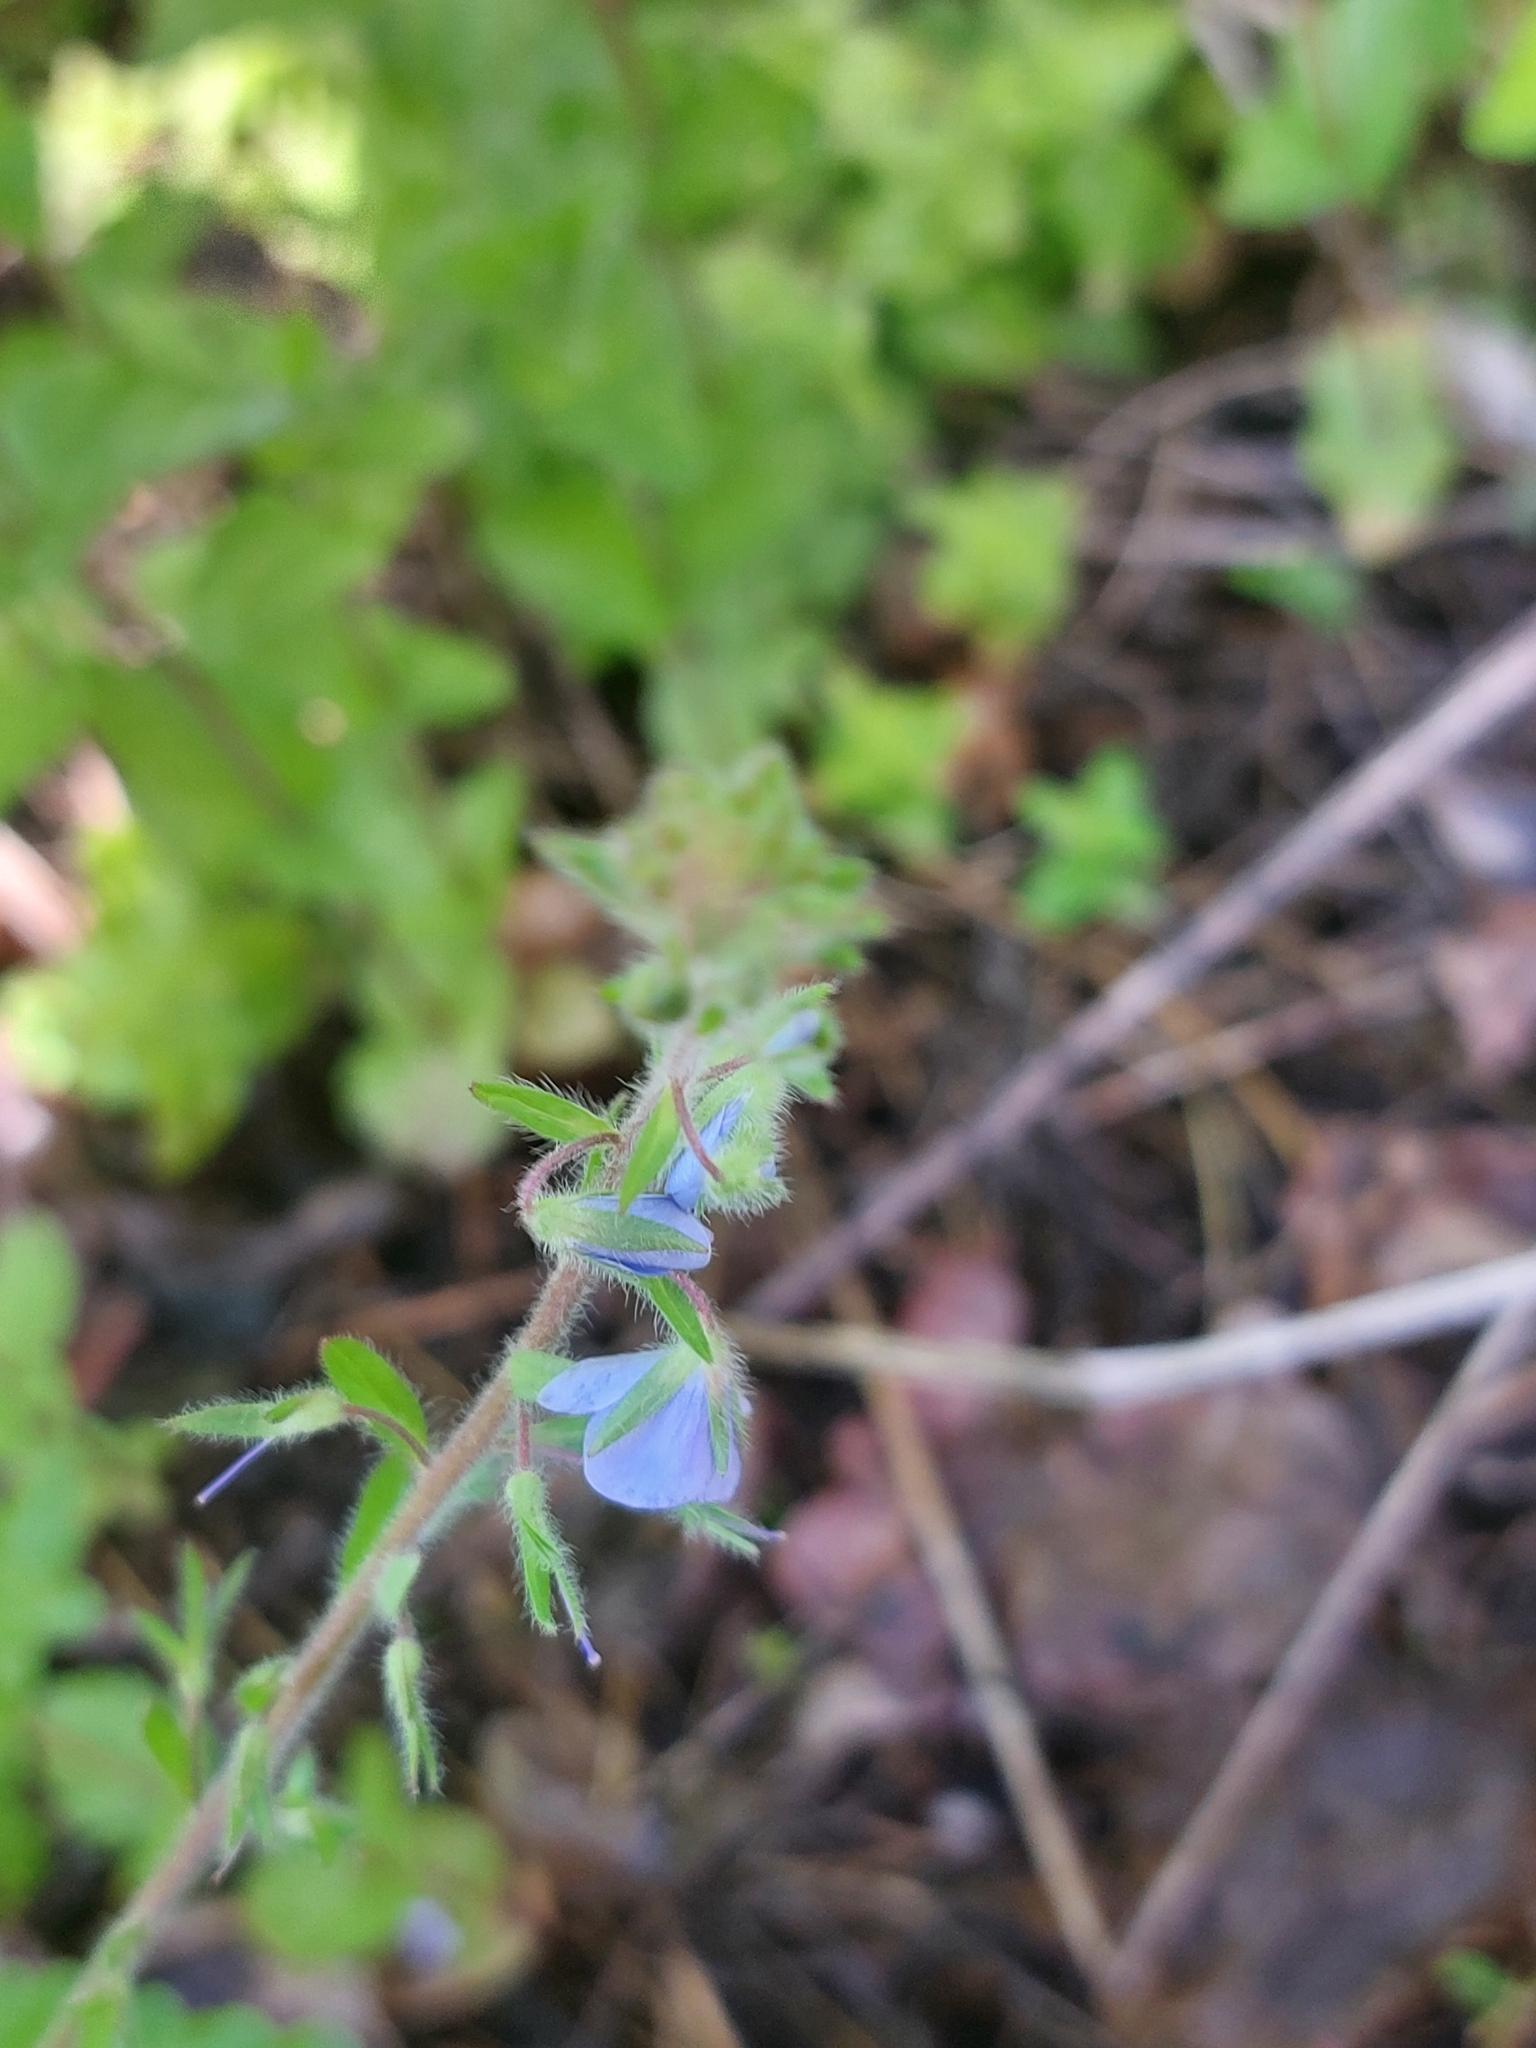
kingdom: Plantae
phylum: Tracheophyta
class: Magnoliopsida
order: Lamiales
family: Plantaginaceae
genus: Veronica
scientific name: Veronica chamaedrys
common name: Germander speedwell
